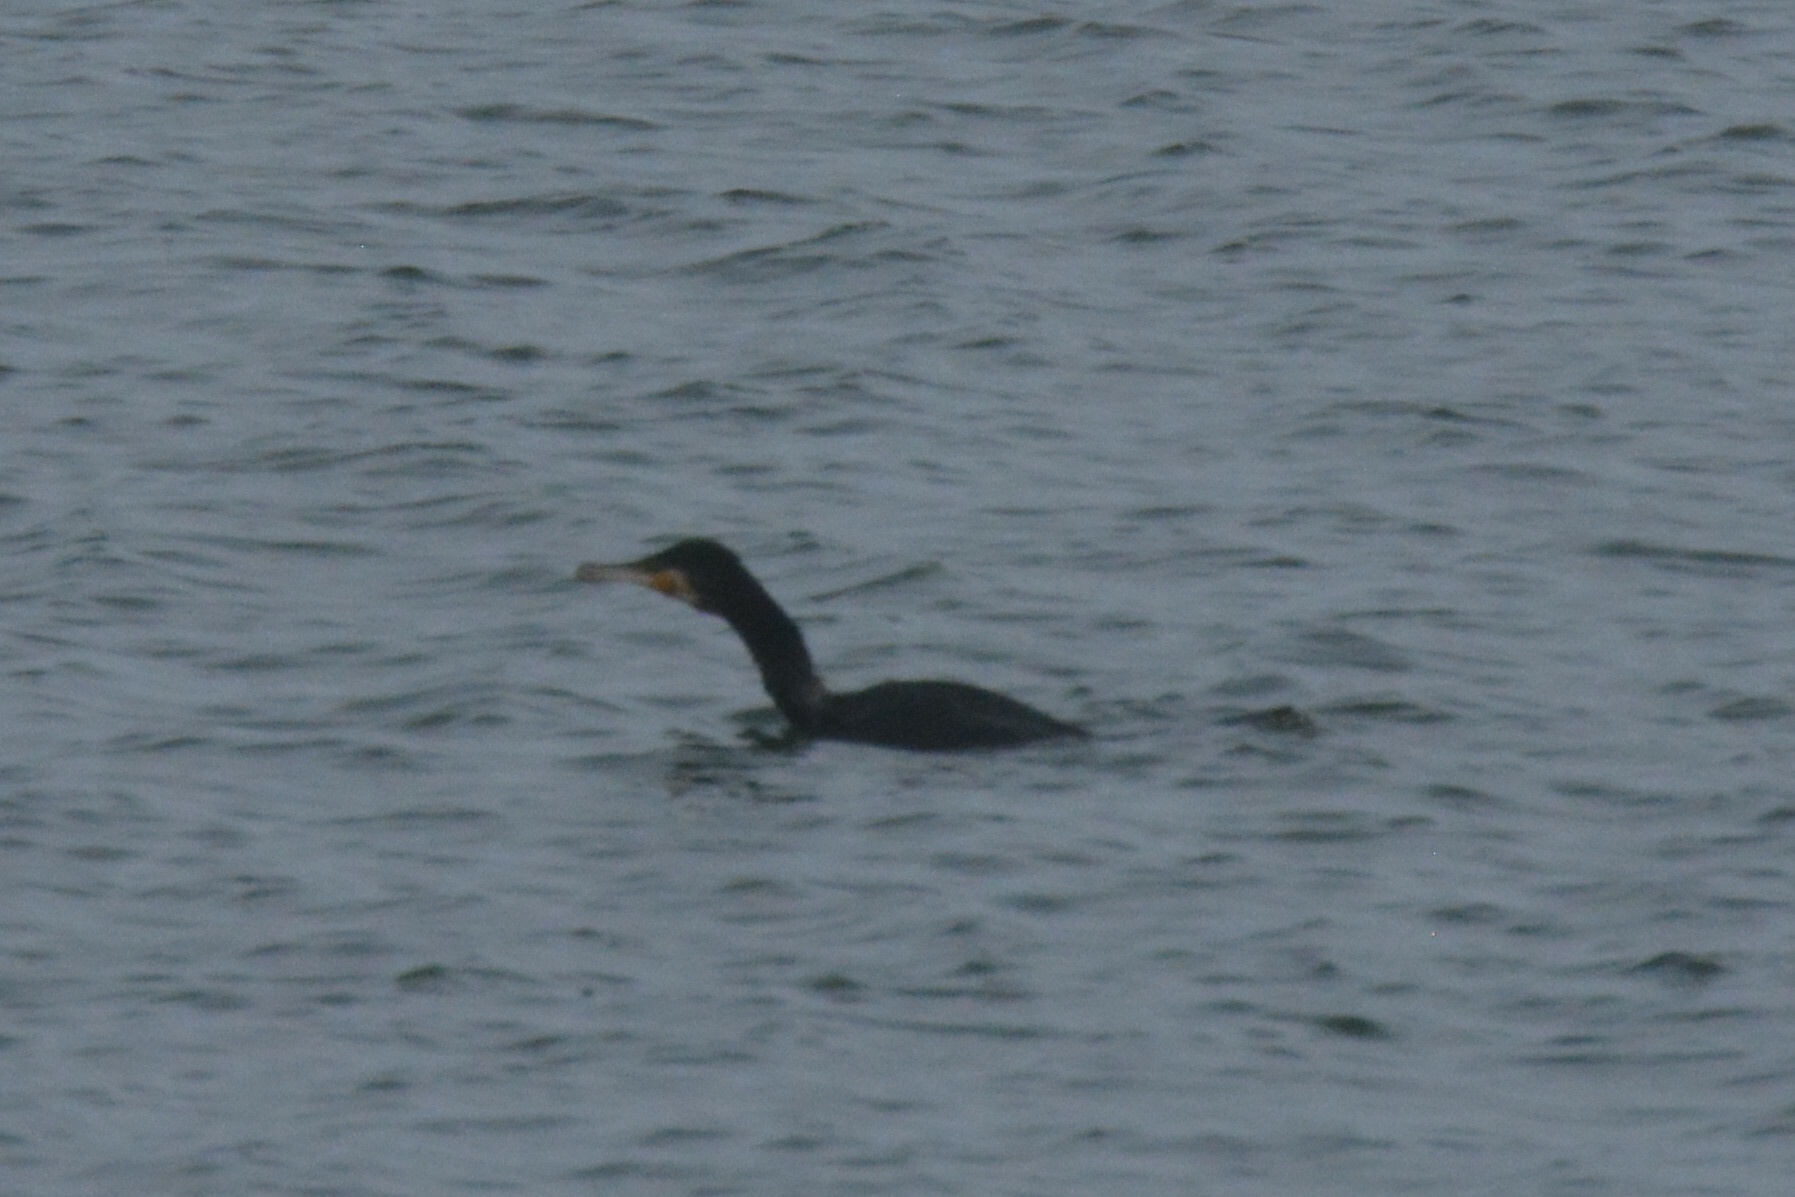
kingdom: Animalia
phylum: Chordata
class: Aves
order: Suliformes
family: Phalacrocoracidae
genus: Phalacrocorax
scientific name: Phalacrocorax carbo
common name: Great cormorant
